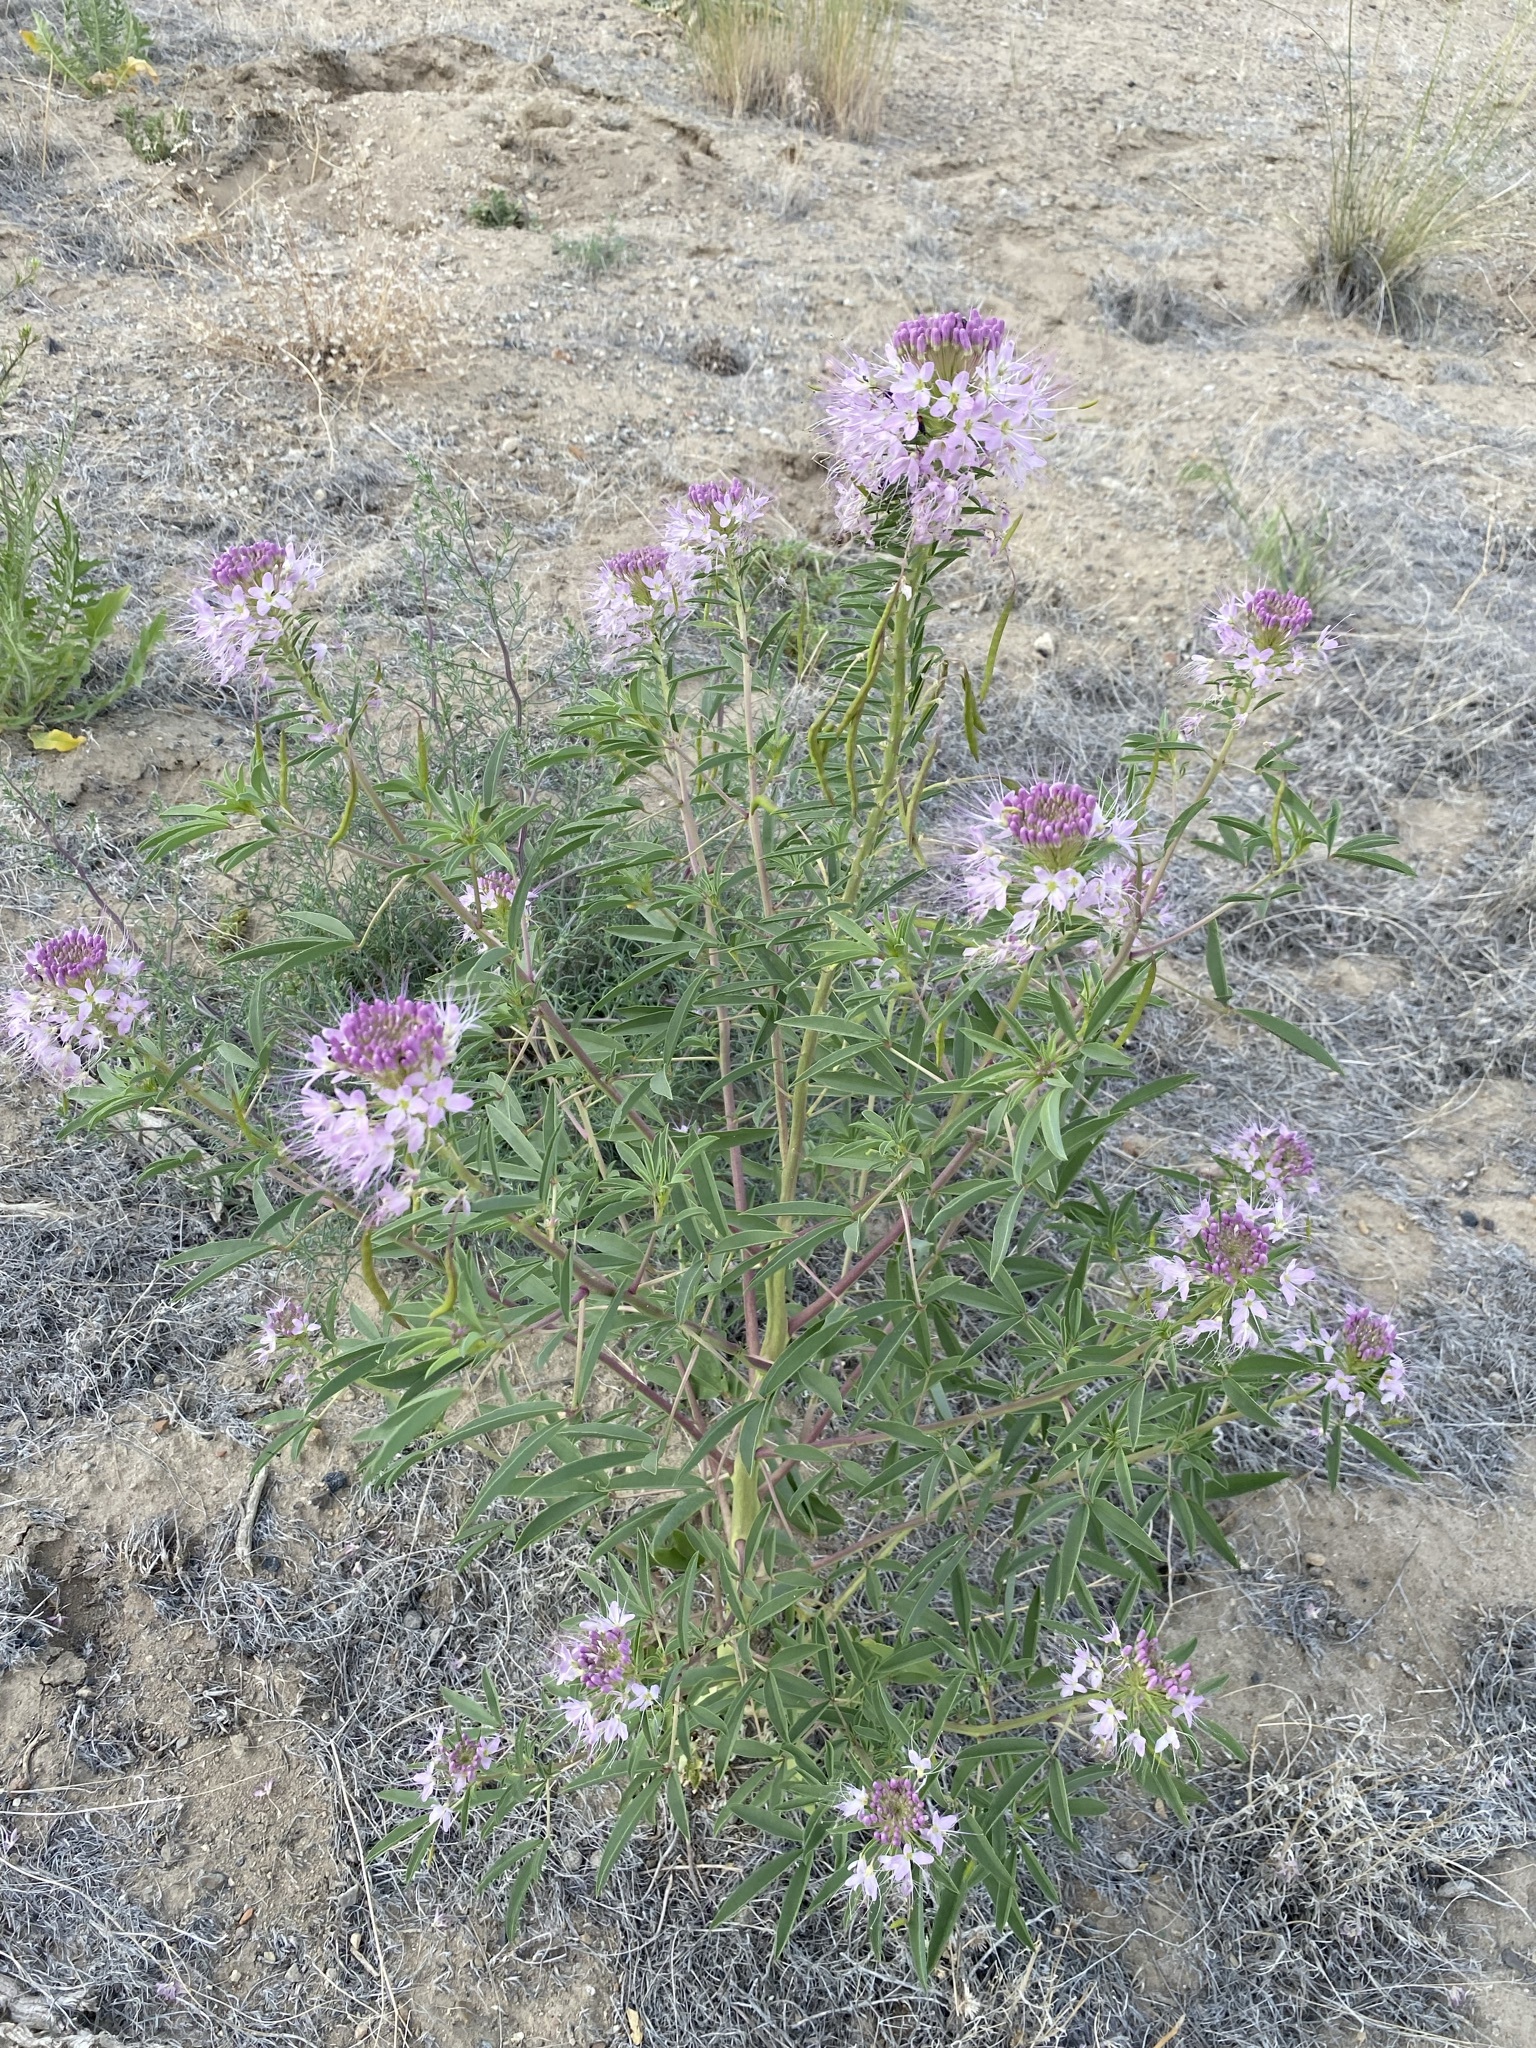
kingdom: Plantae
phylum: Tracheophyta
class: Magnoliopsida
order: Brassicales
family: Cleomaceae
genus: Cleomella
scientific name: Cleomella serrulata
